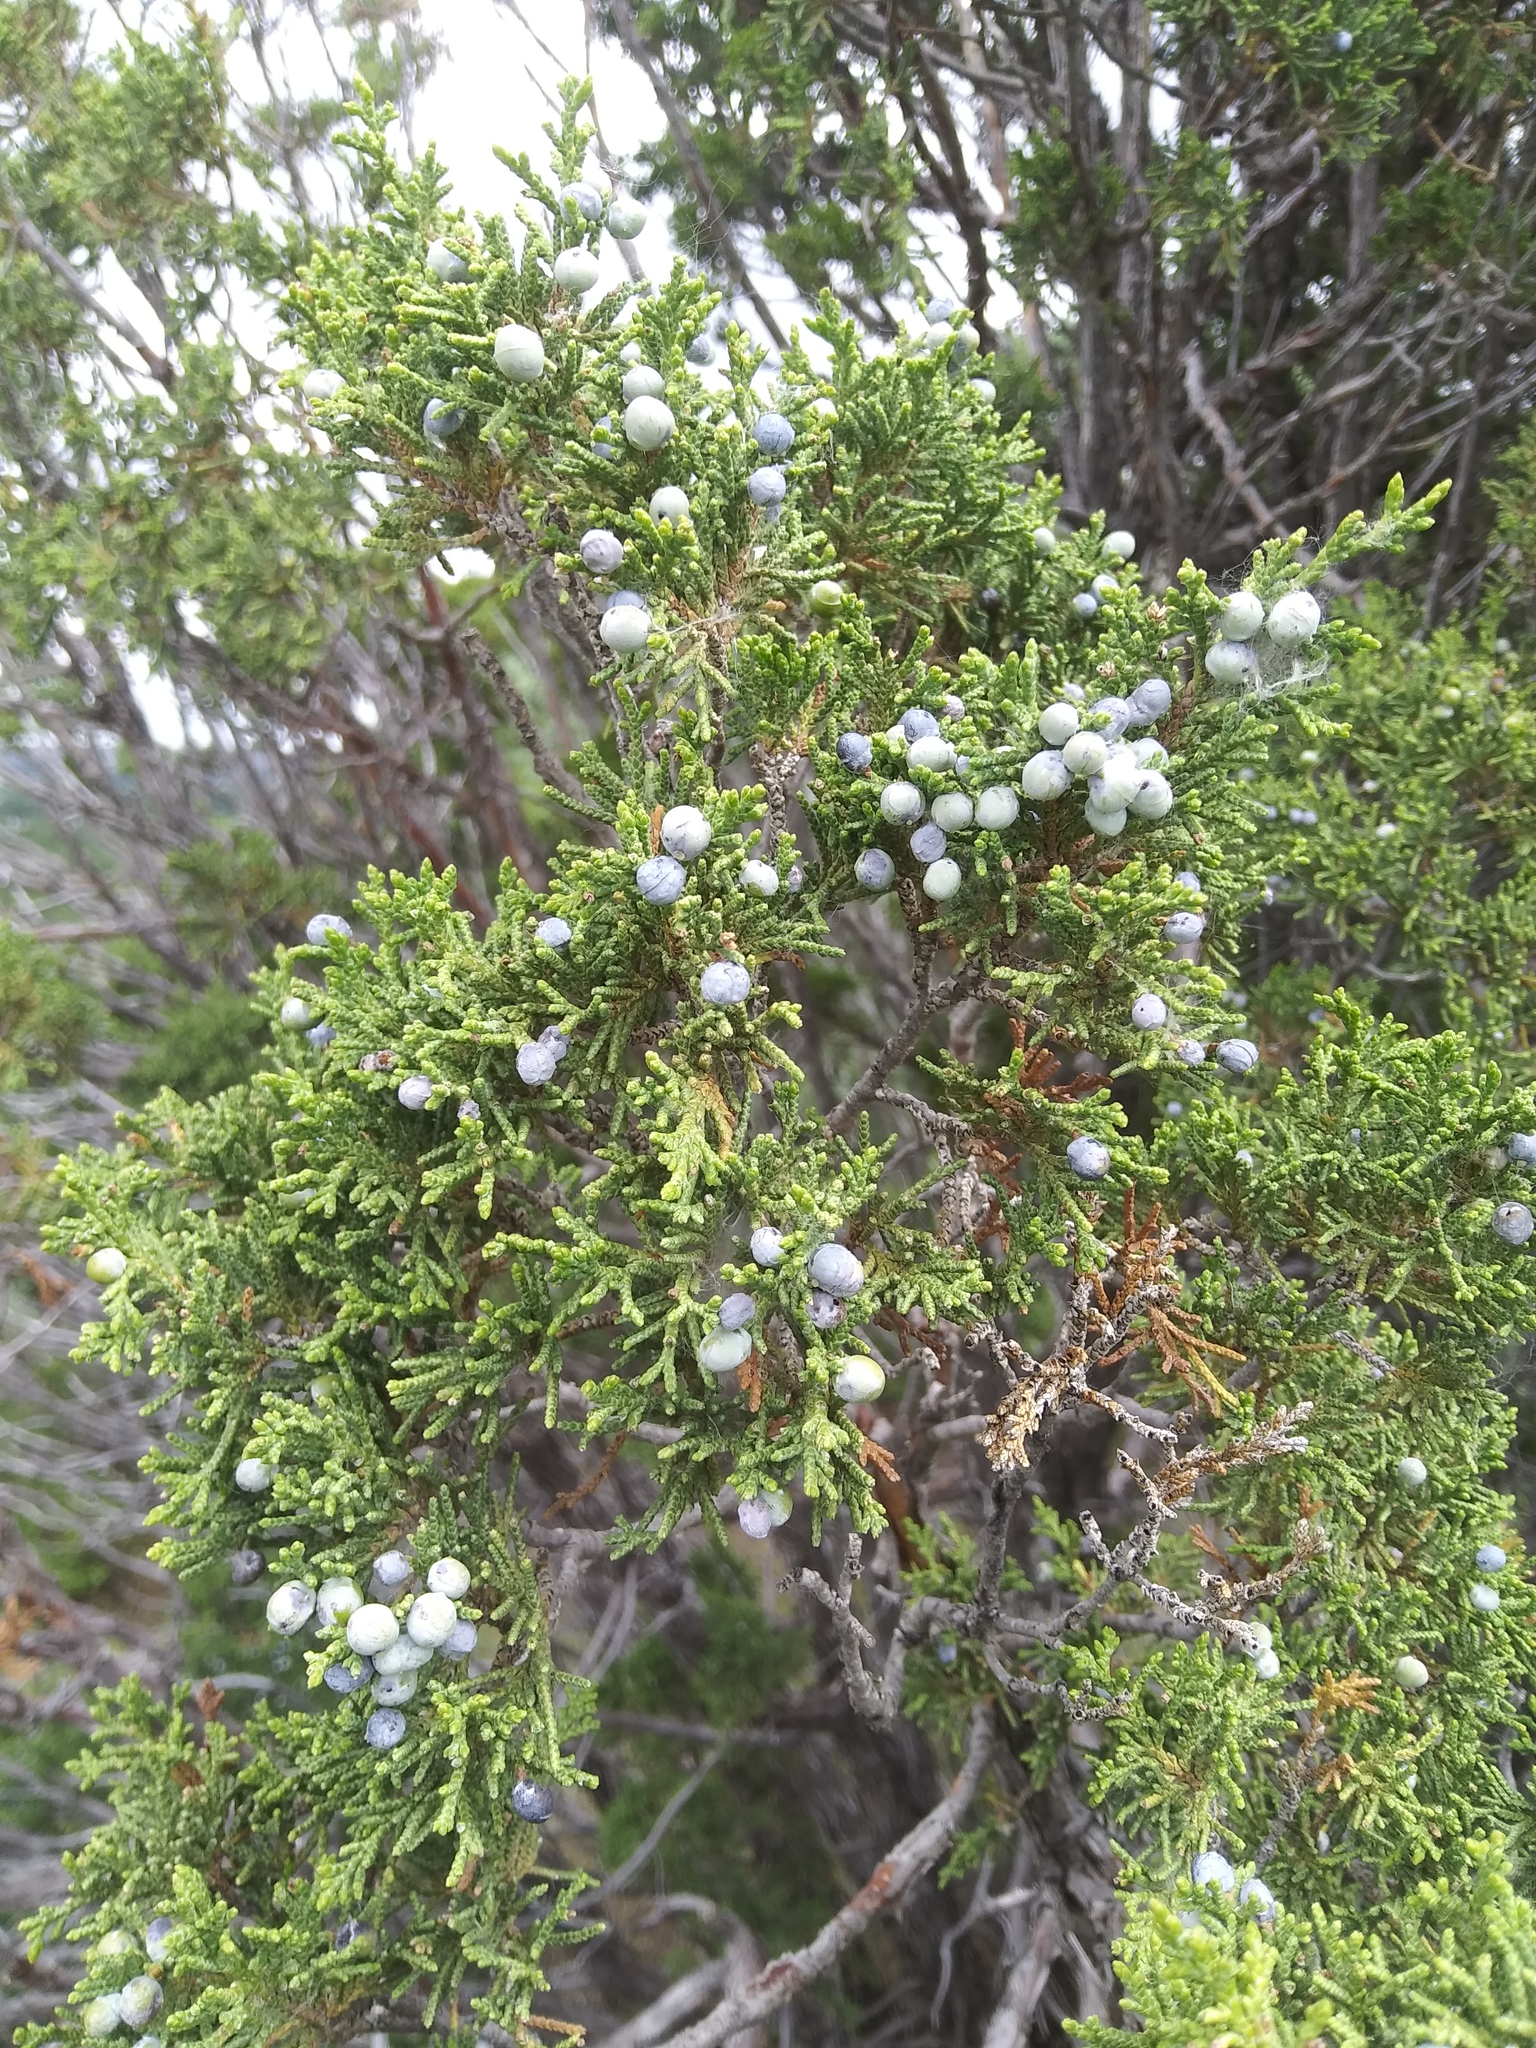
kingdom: Plantae
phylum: Tracheophyta
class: Pinopsida
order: Pinales
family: Cupressaceae
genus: Juniperus
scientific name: Juniperus scopulorum
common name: Rocky mountain juniper
